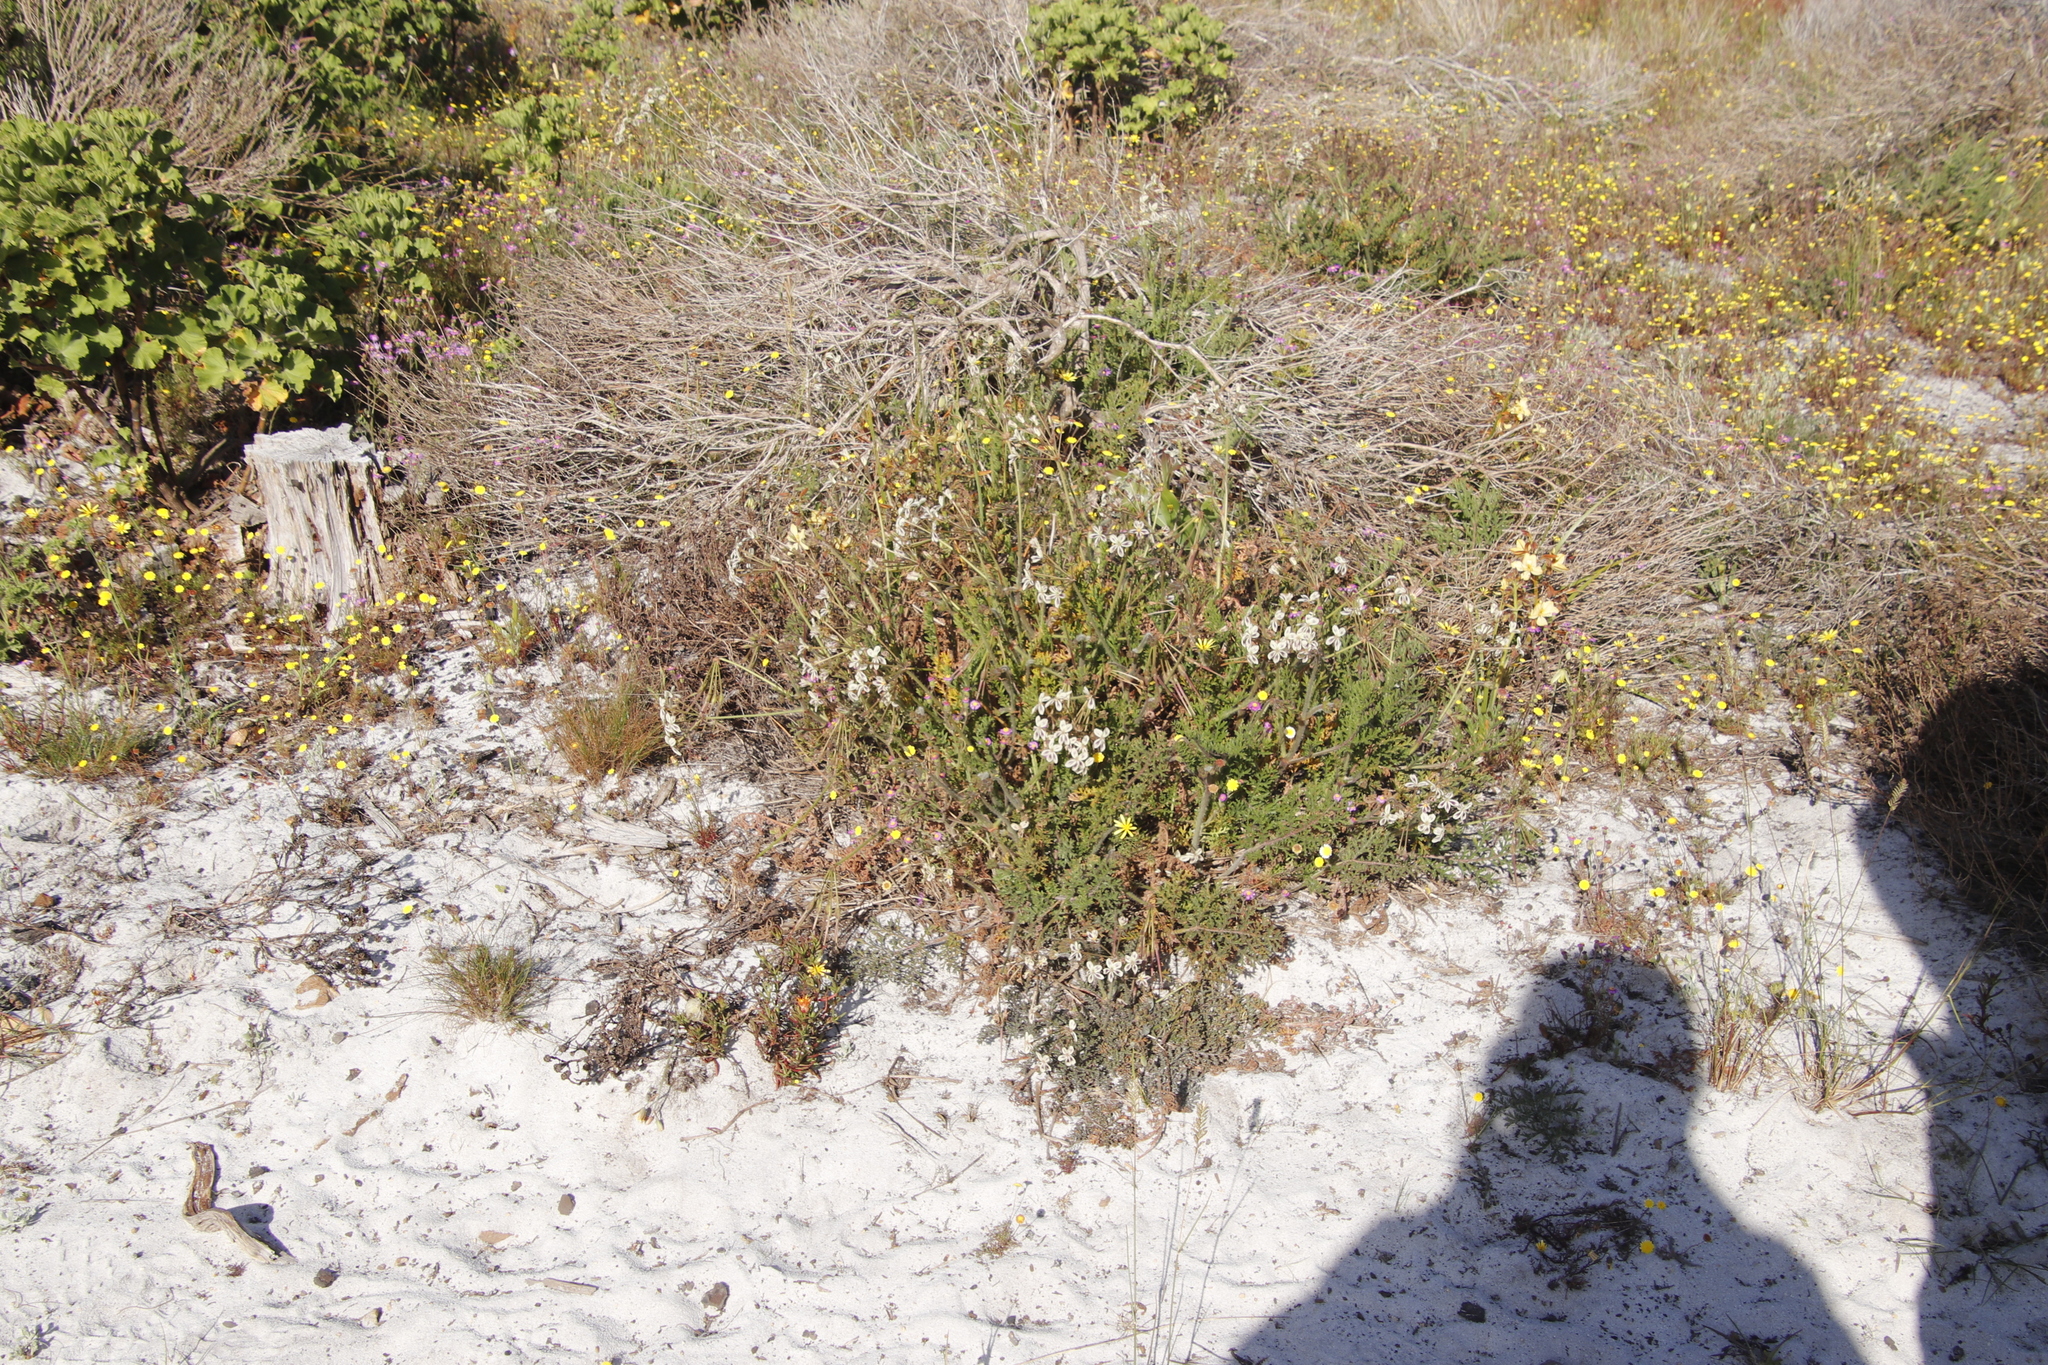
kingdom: Plantae
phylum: Tracheophyta
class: Magnoliopsida
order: Geraniales
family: Geraniaceae
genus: Pelargonium
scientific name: Pelargonium triste
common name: Night-scent pelargonium
